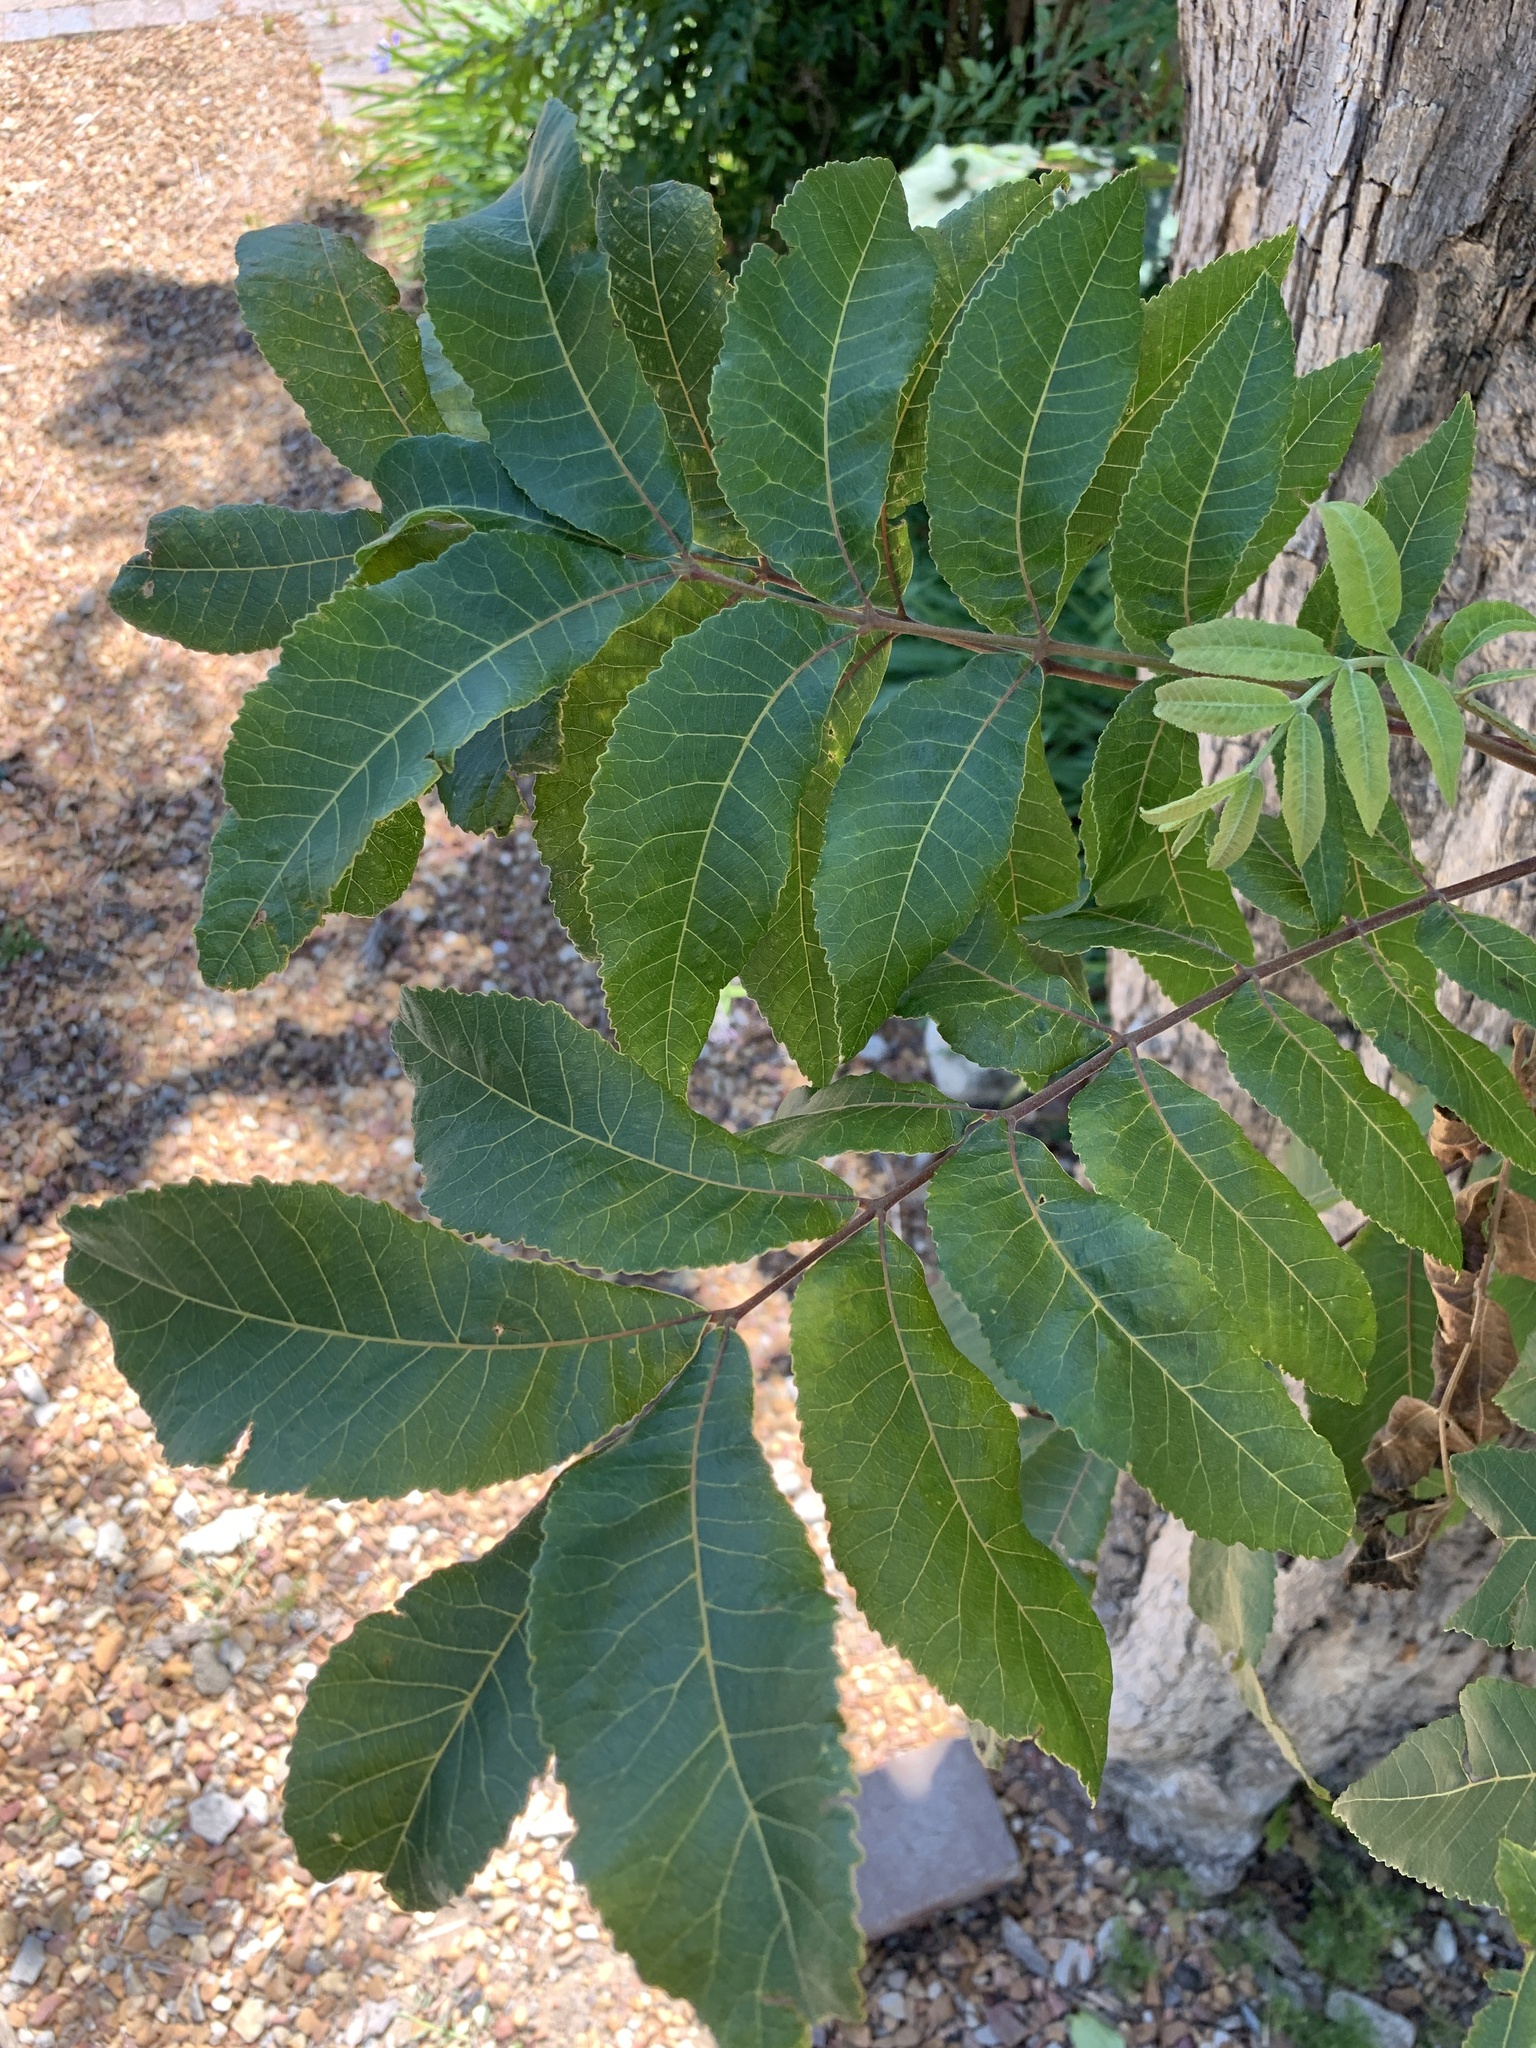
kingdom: Plantae
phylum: Tracheophyta
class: Magnoliopsida
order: Fagales
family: Juglandaceae
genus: Carya
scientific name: Carya illinoinensis
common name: Pecan
